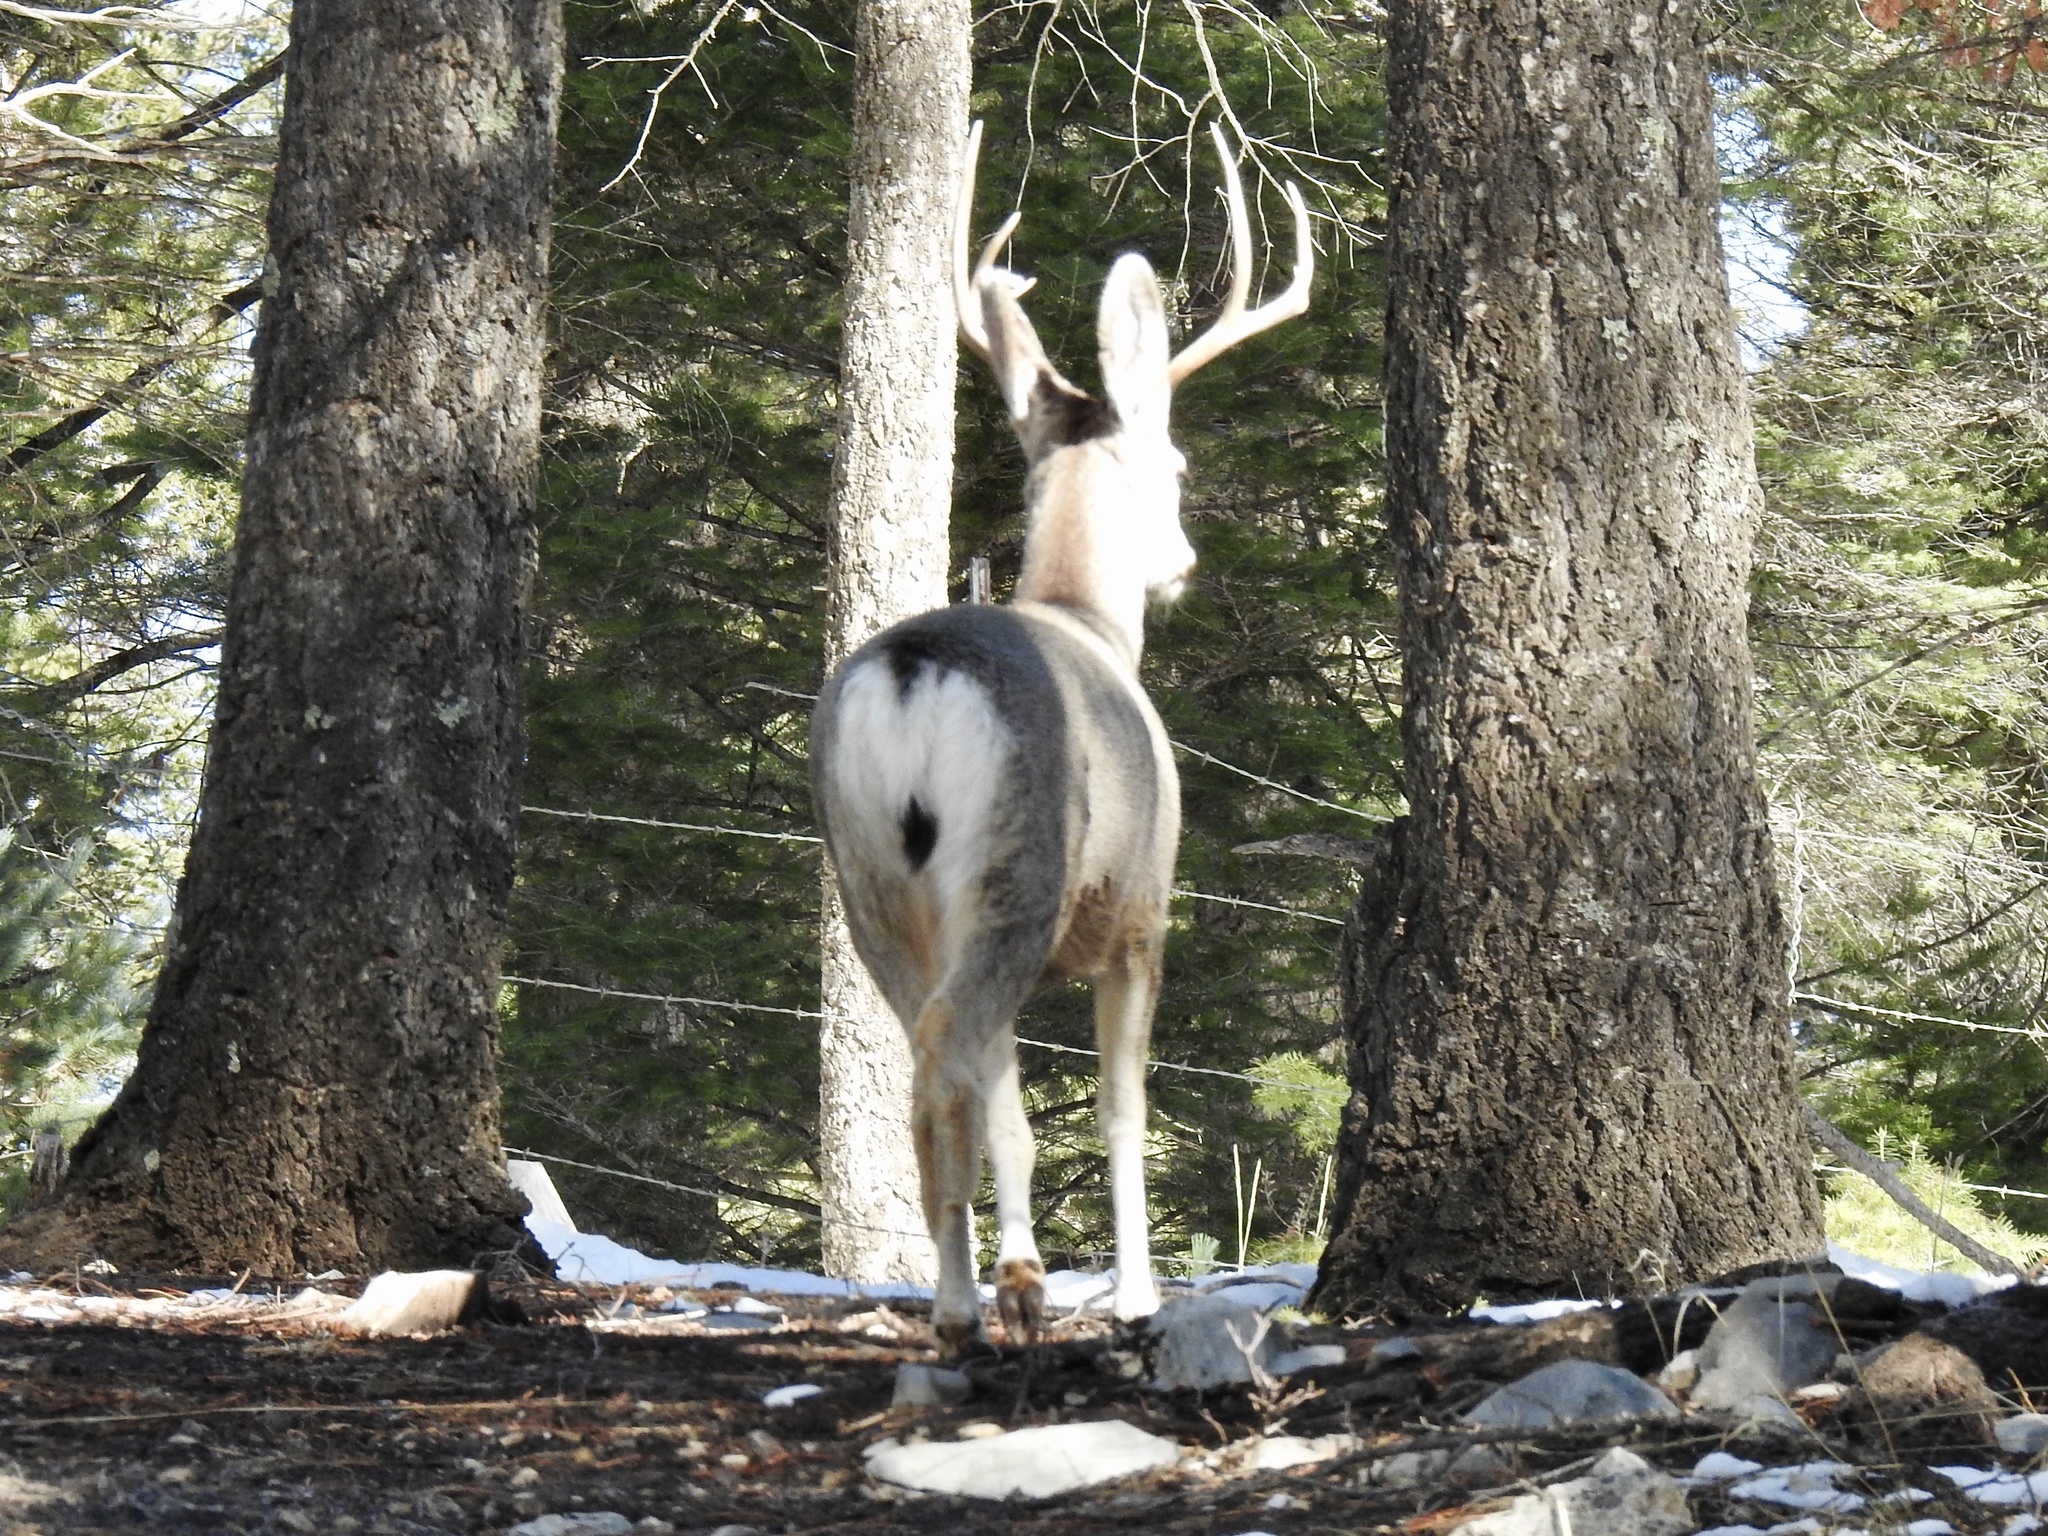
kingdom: Animalia
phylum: Chordata
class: Mammalia
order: Artiodactyla
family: Cervidae
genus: Odocoileus
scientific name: Odocoileus hemionus
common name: Mule deer
